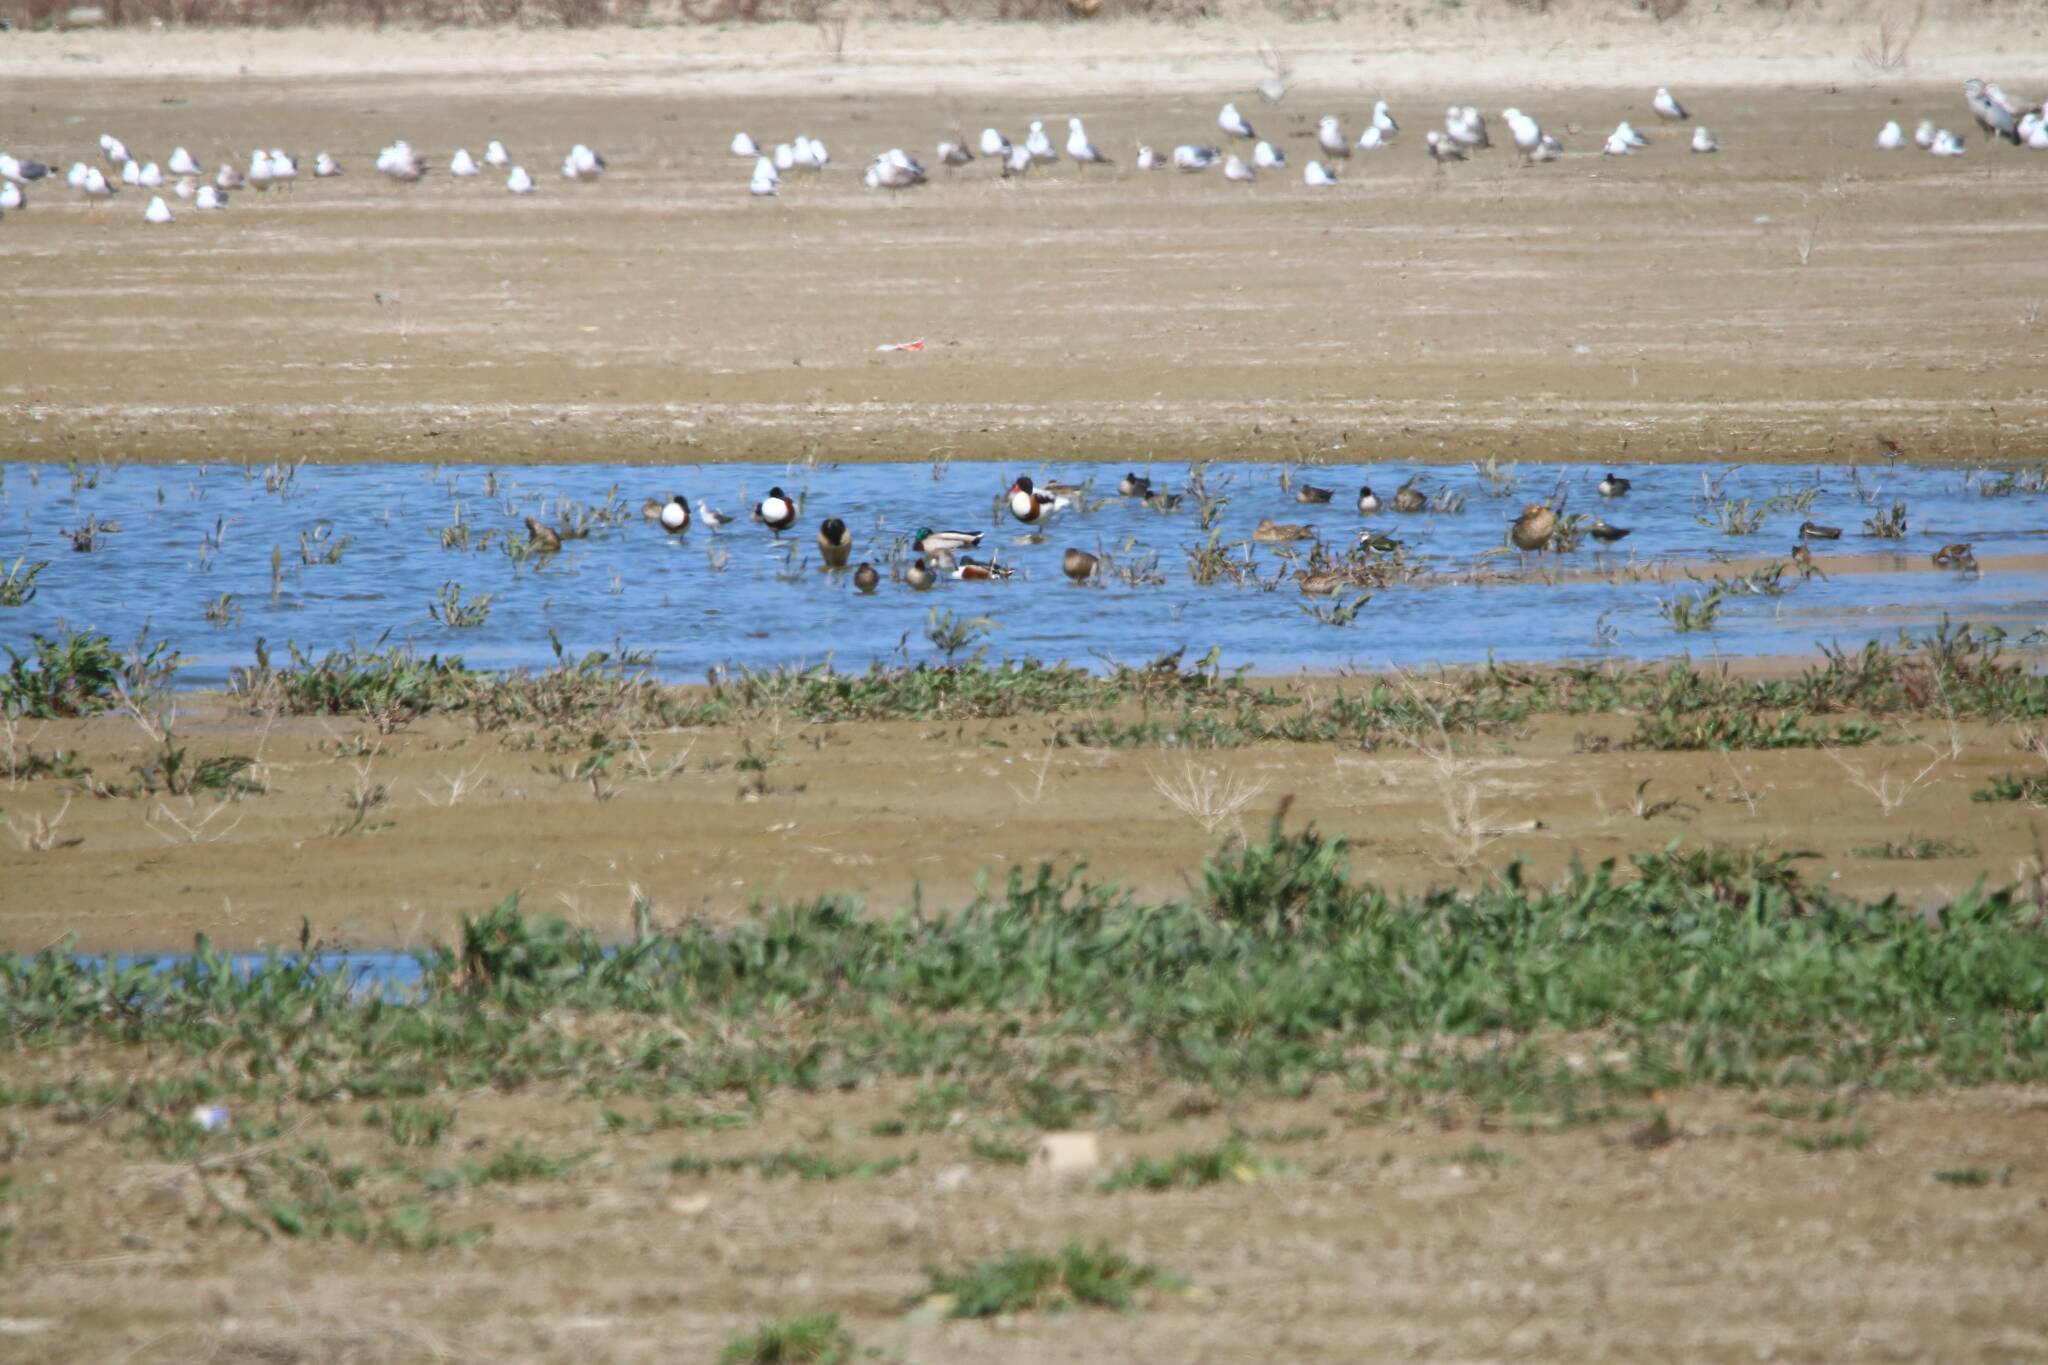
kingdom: Animalia
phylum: Chordata
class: Aves
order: Anseriformes
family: Anatidae
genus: Tadorna
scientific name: Tadorna tadorna
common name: Common shelduck
